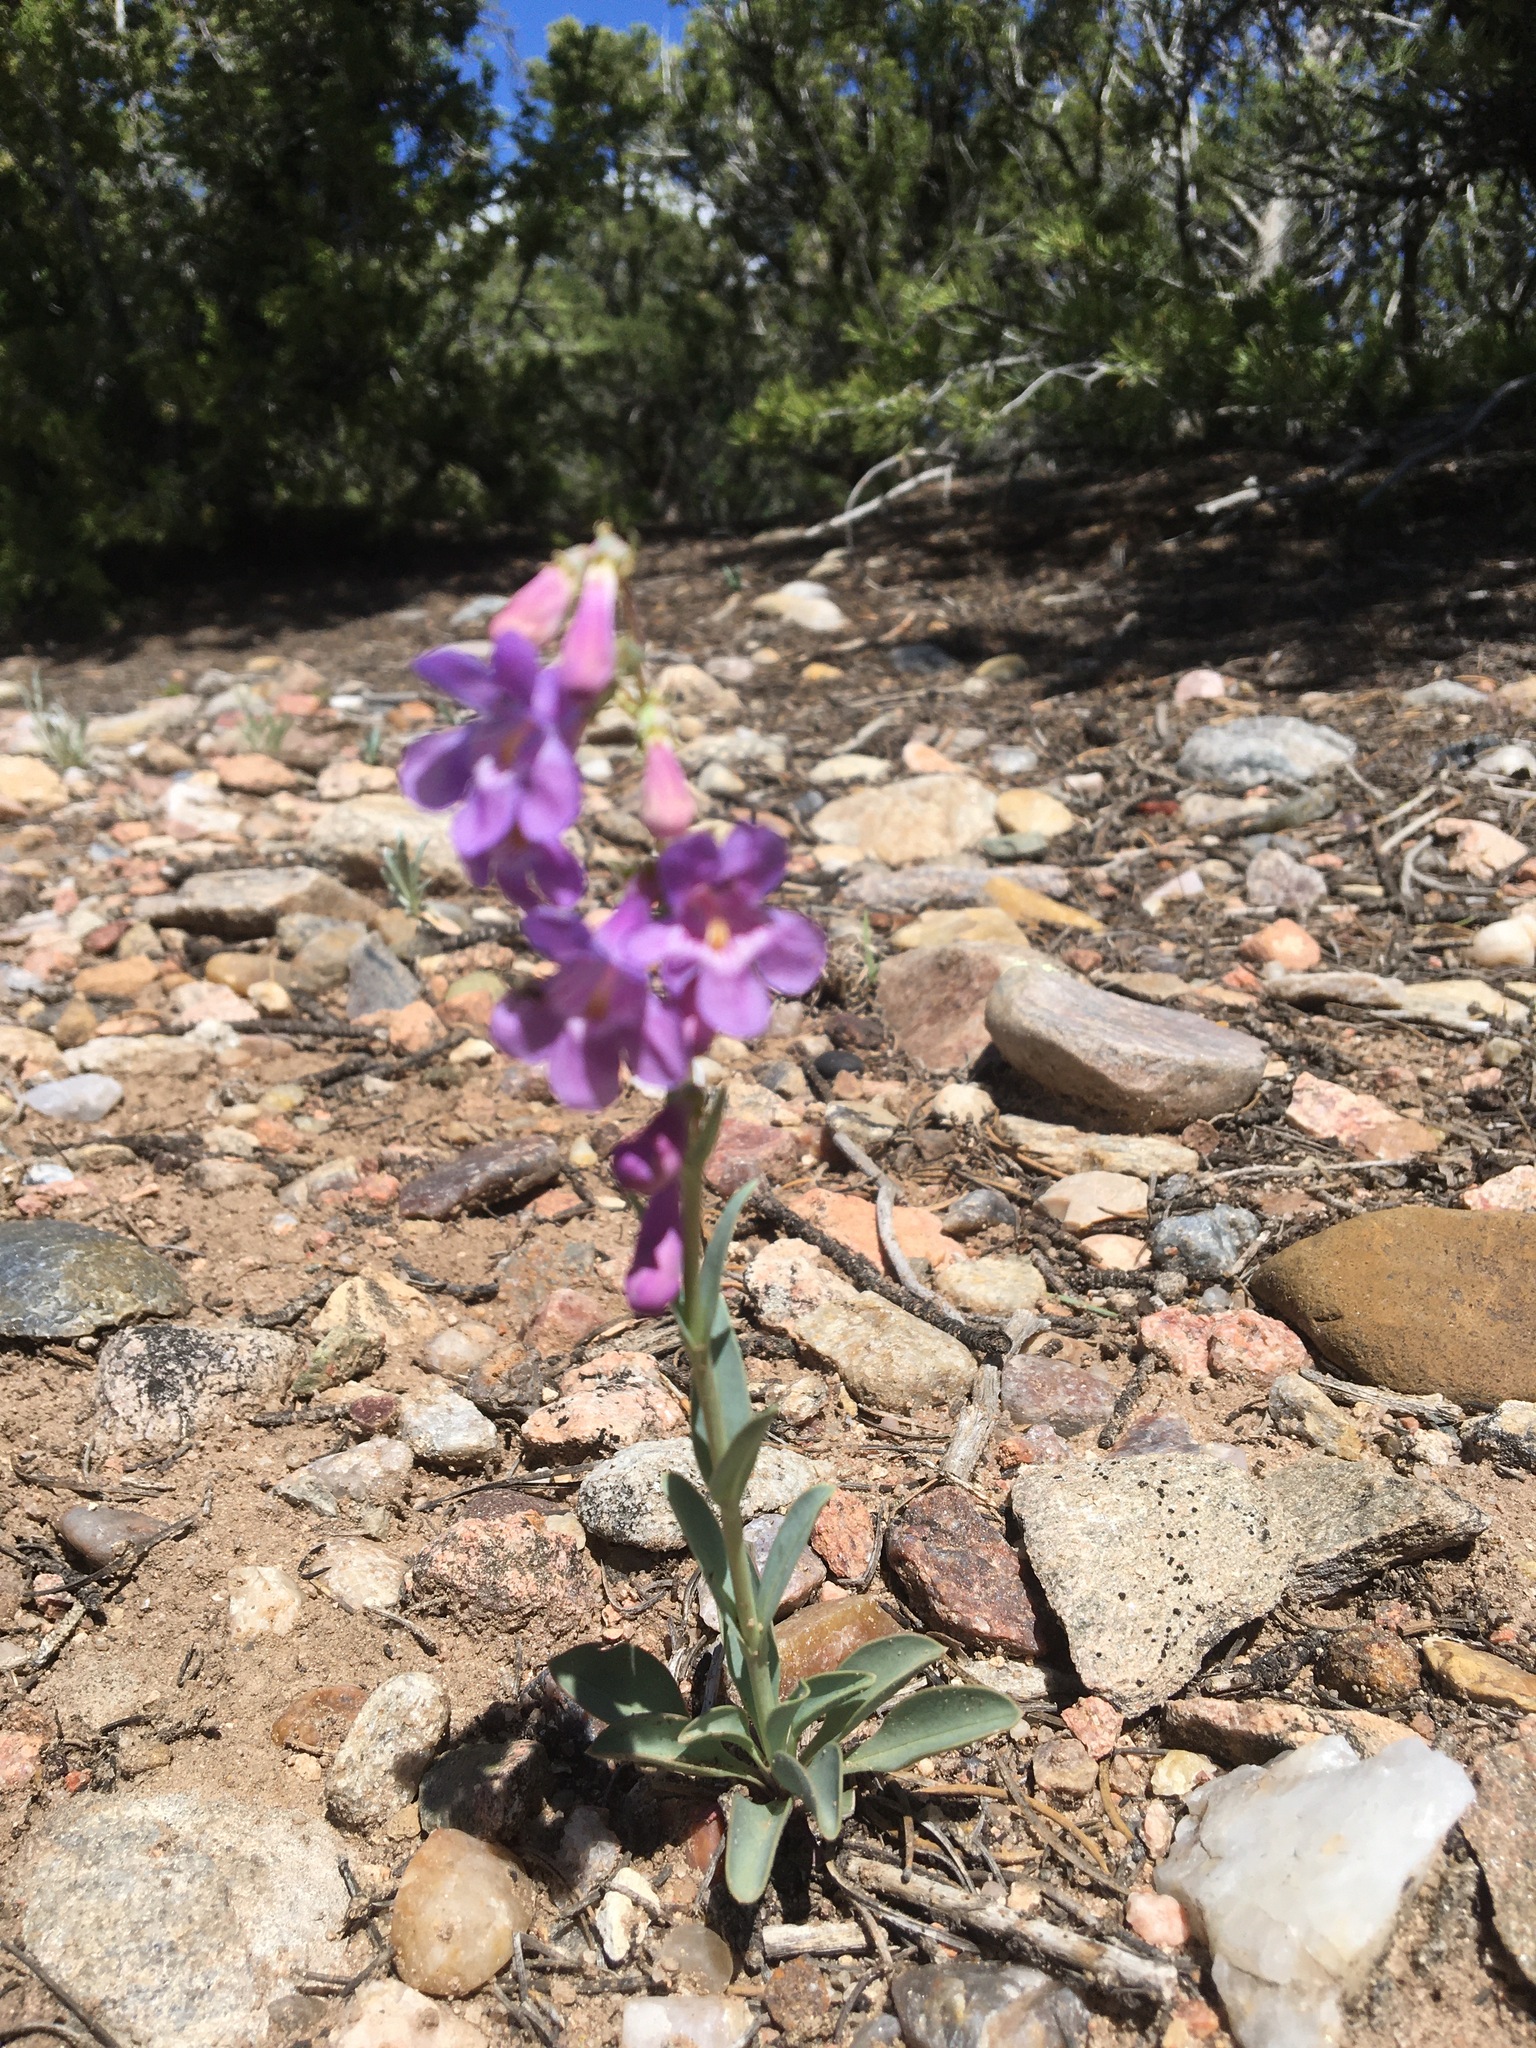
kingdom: Plantae
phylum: Tracheophyta
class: Magnoliopsida
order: Lamiales
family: Plantaginaceae
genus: Penstemon
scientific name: Penstemon fendleri
